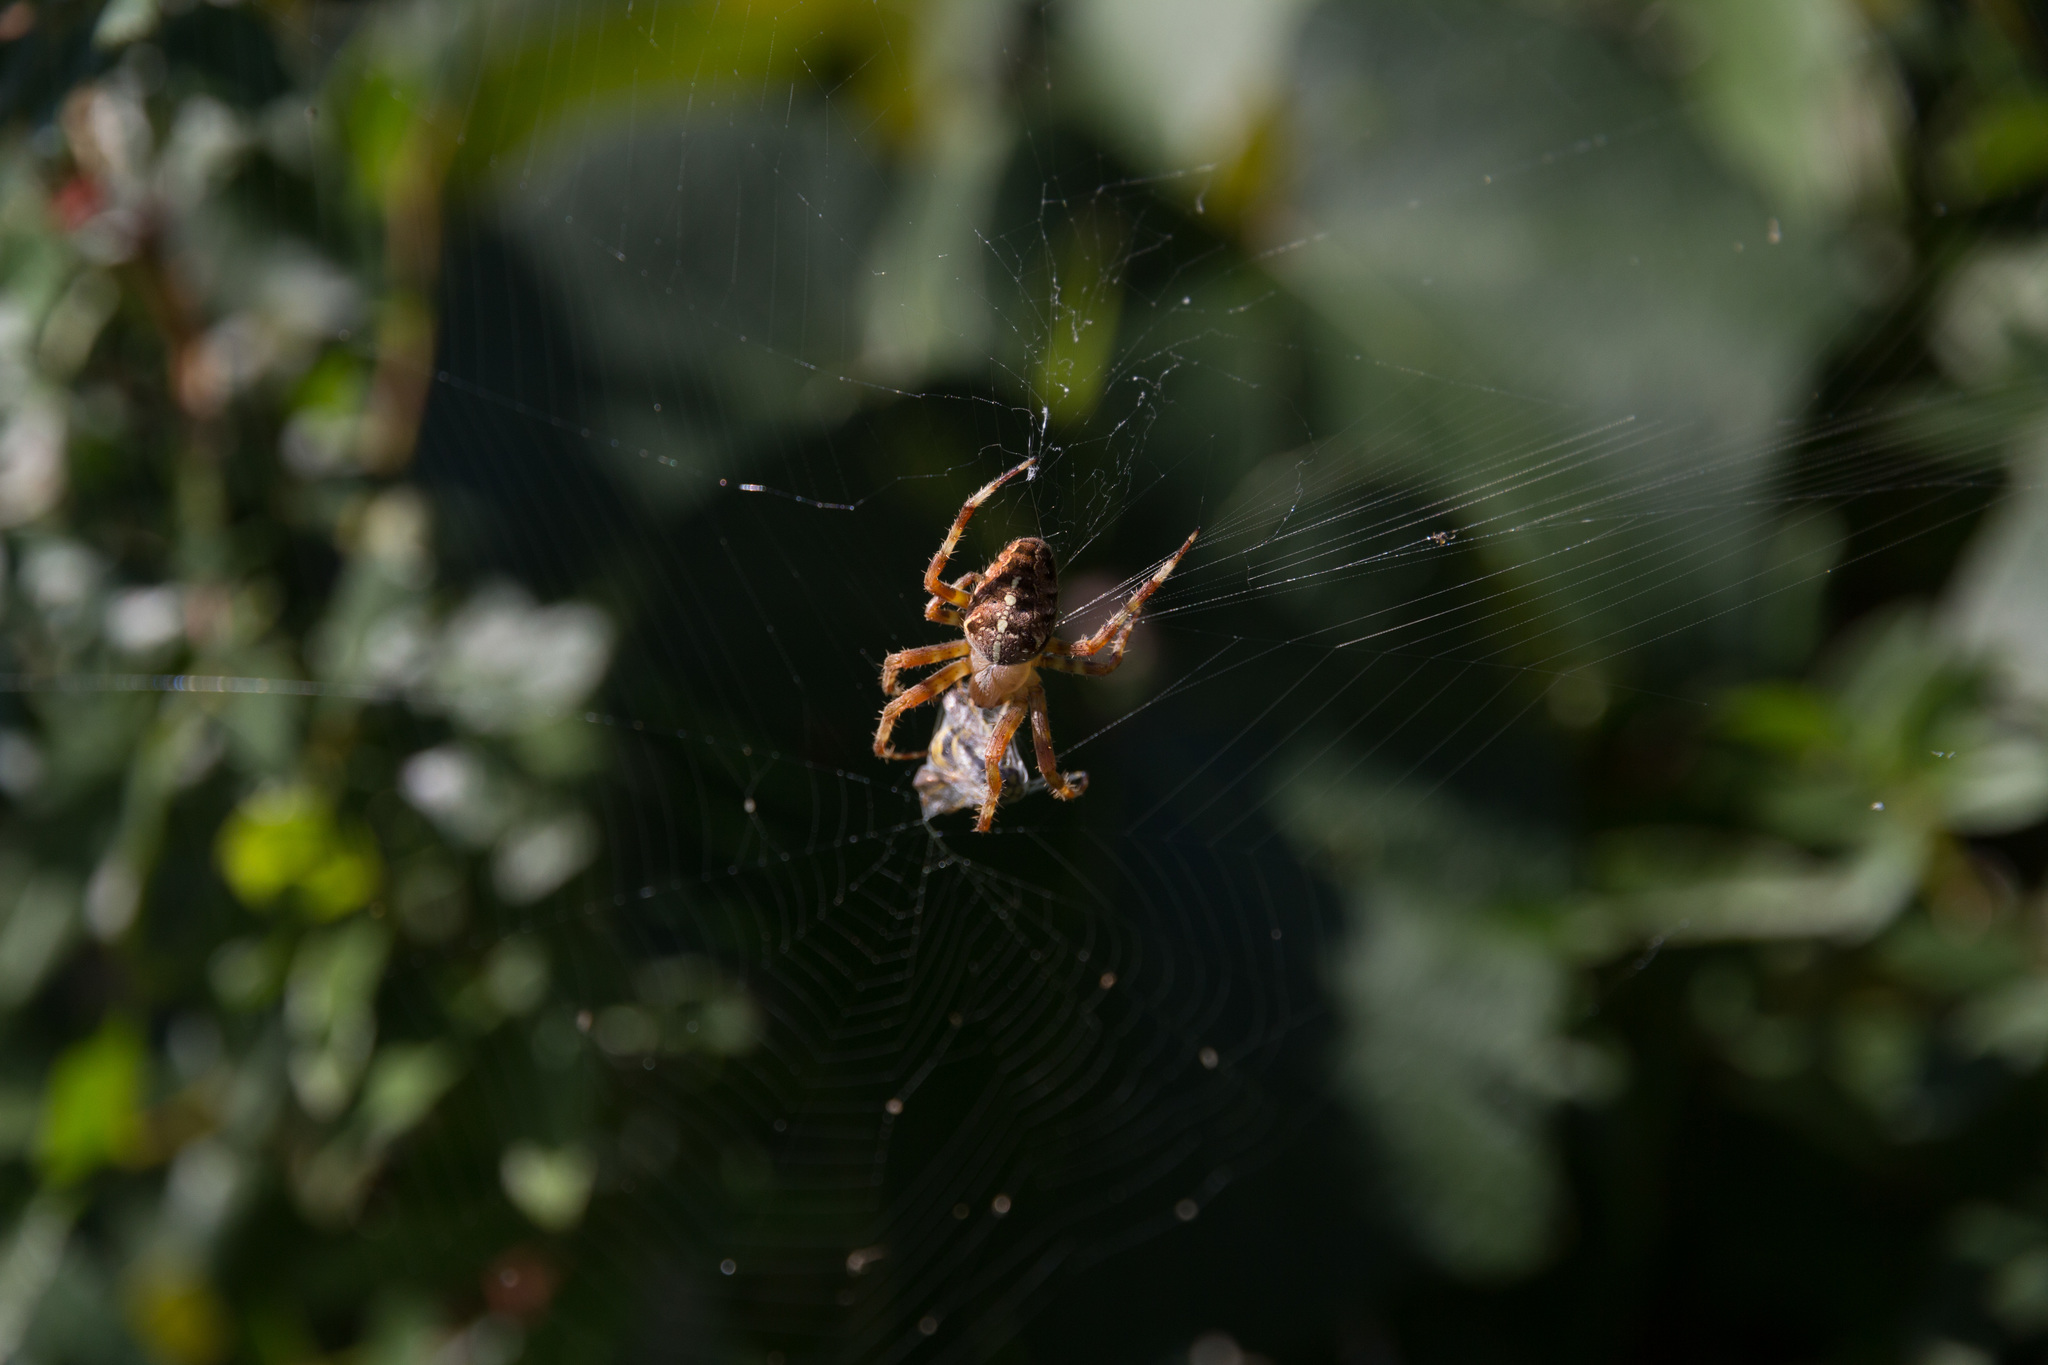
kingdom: Animalia
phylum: Arthropoda
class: Arachnida
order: Araneae
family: Araneidae
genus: Araneus
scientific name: Araneus diadematus
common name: Cross orbweaver
